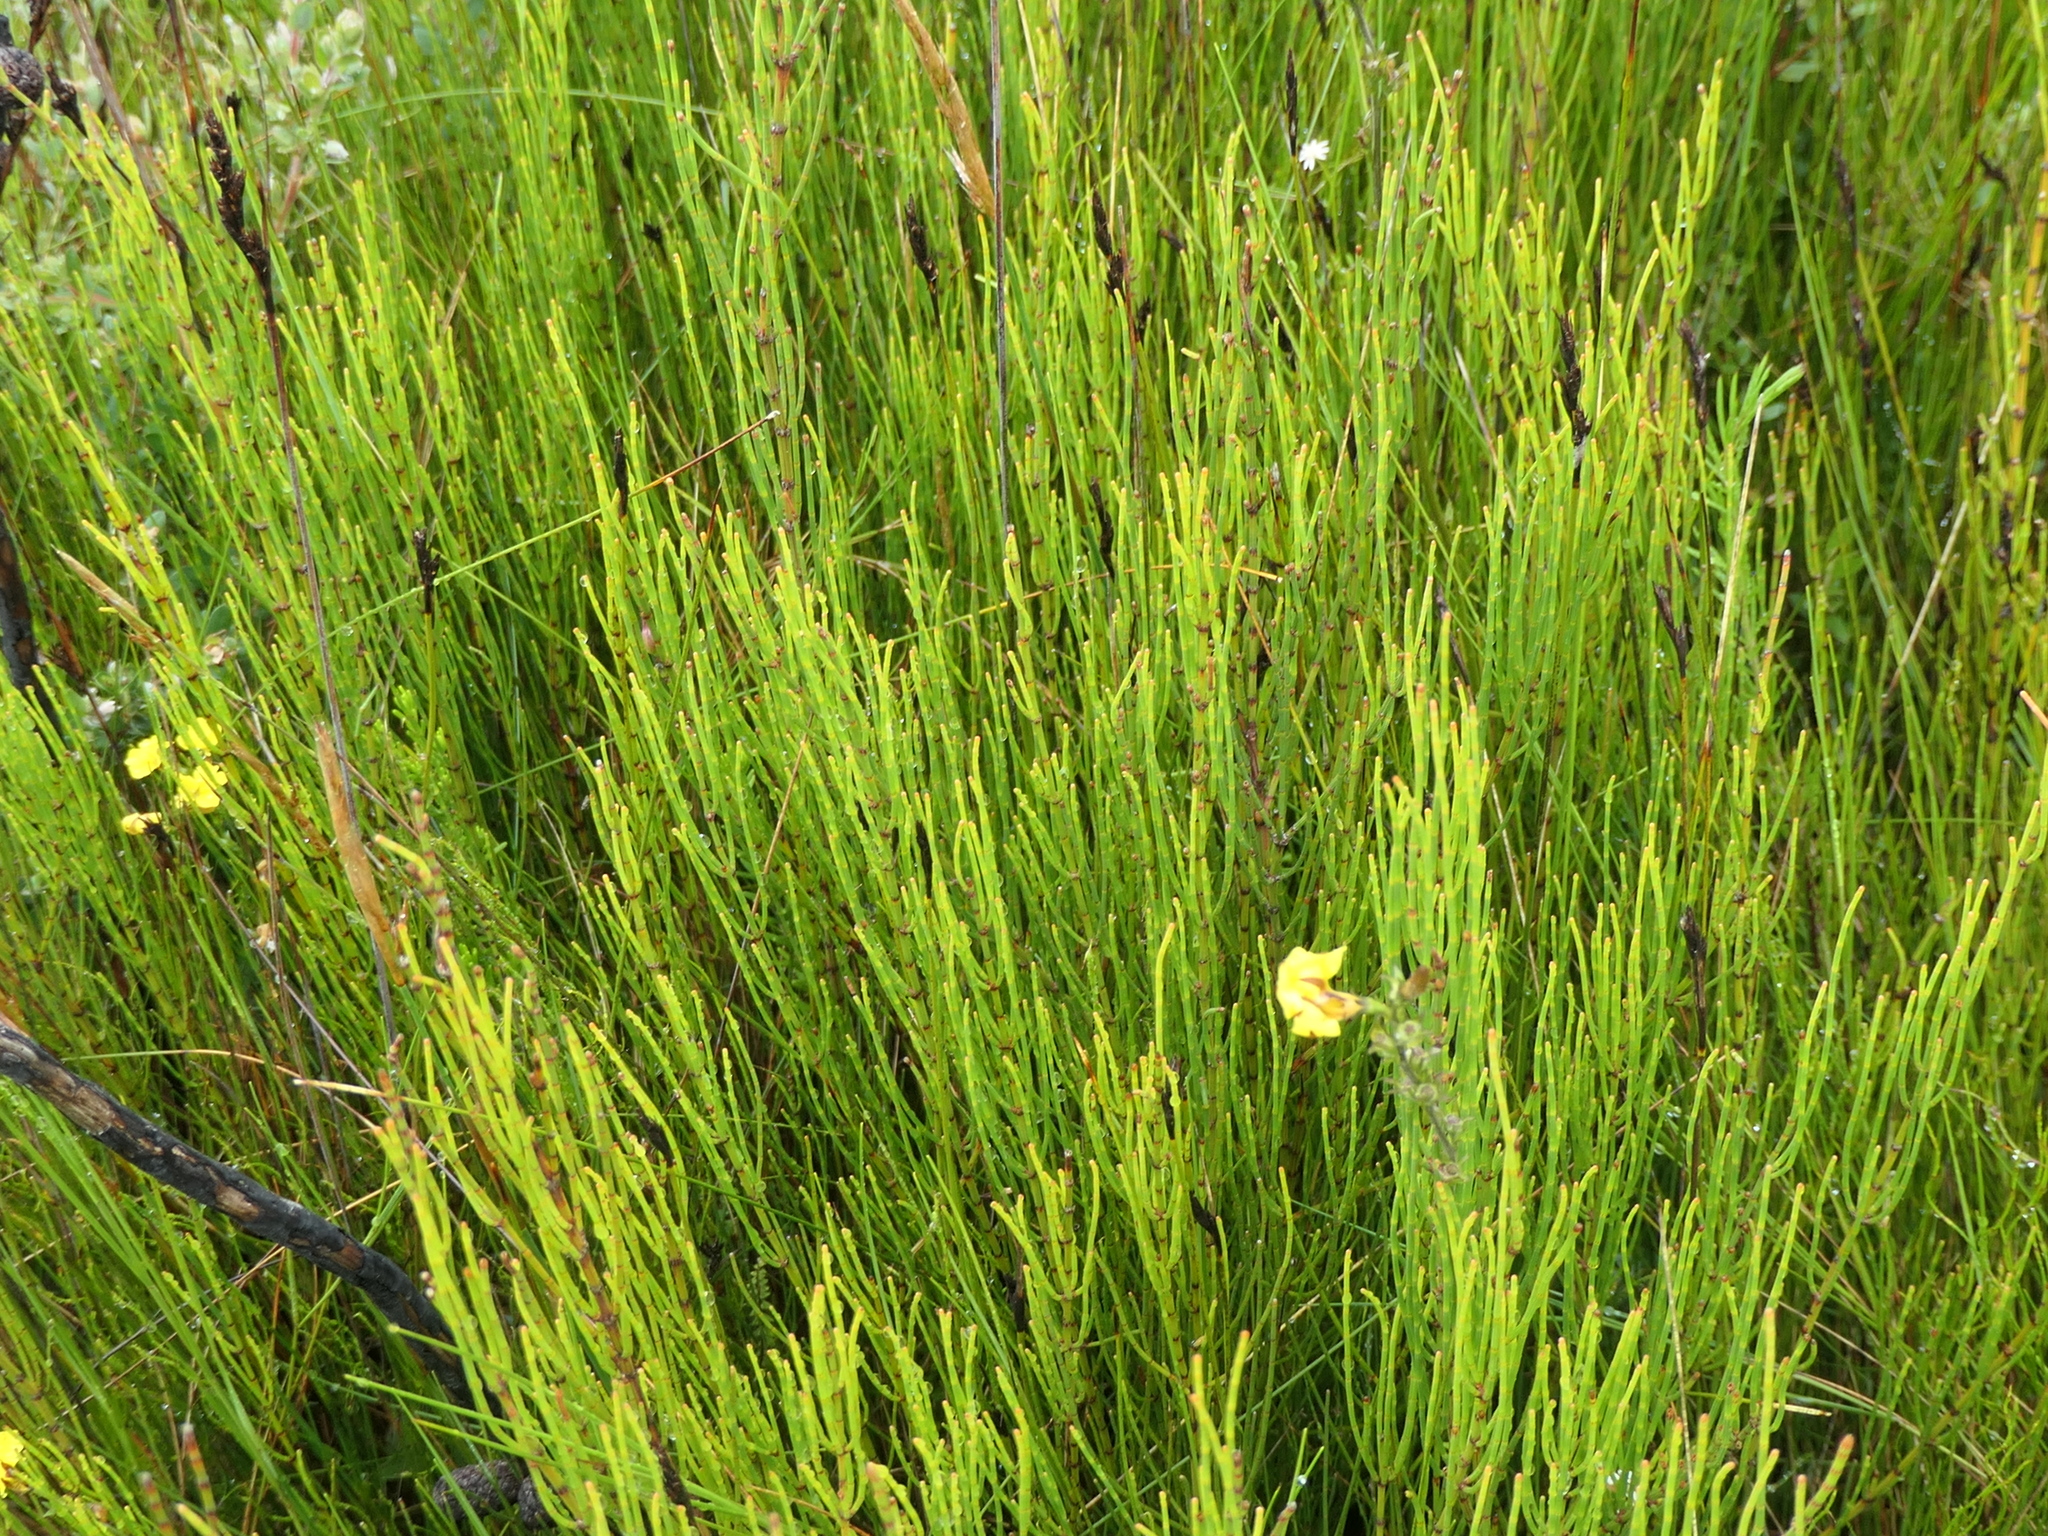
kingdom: Plantae
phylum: Tracheophyta
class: Magnoliopsida
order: Fagales
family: Casuarinaceae
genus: Allocasuarina
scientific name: Allocasuarina nana
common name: Stunted she-oak
